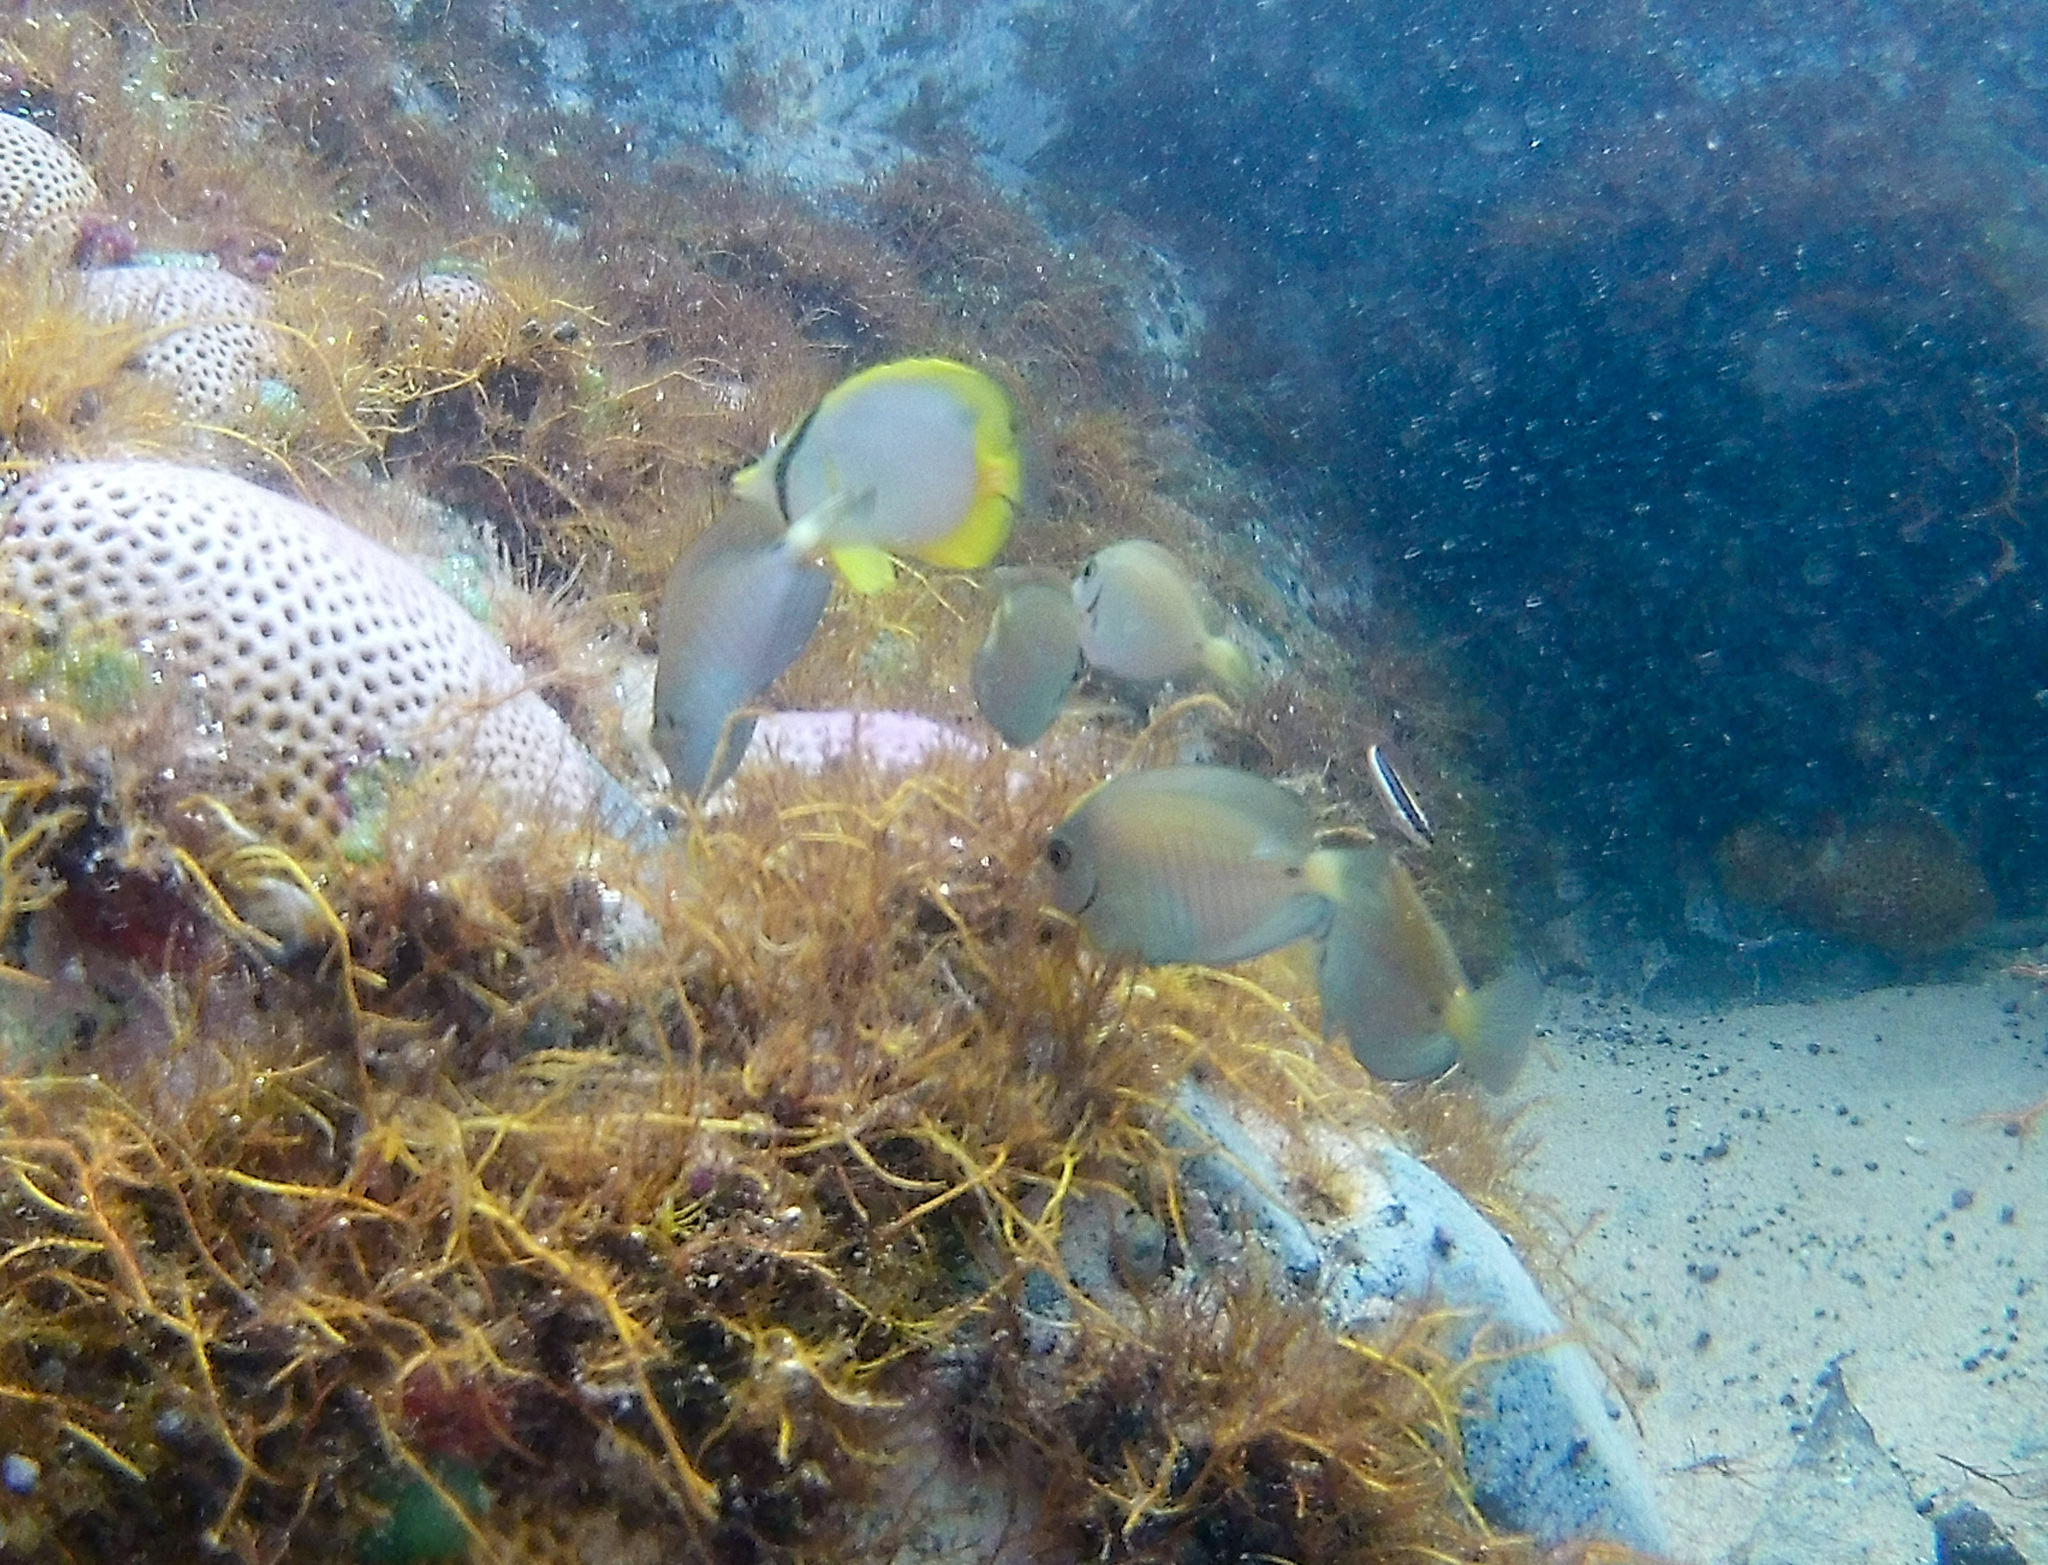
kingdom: Animalia
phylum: Chordata
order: Perciformes
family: Acanthuridae
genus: Acanthurus
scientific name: Acanthurus chirurgus
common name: Doctorfish
